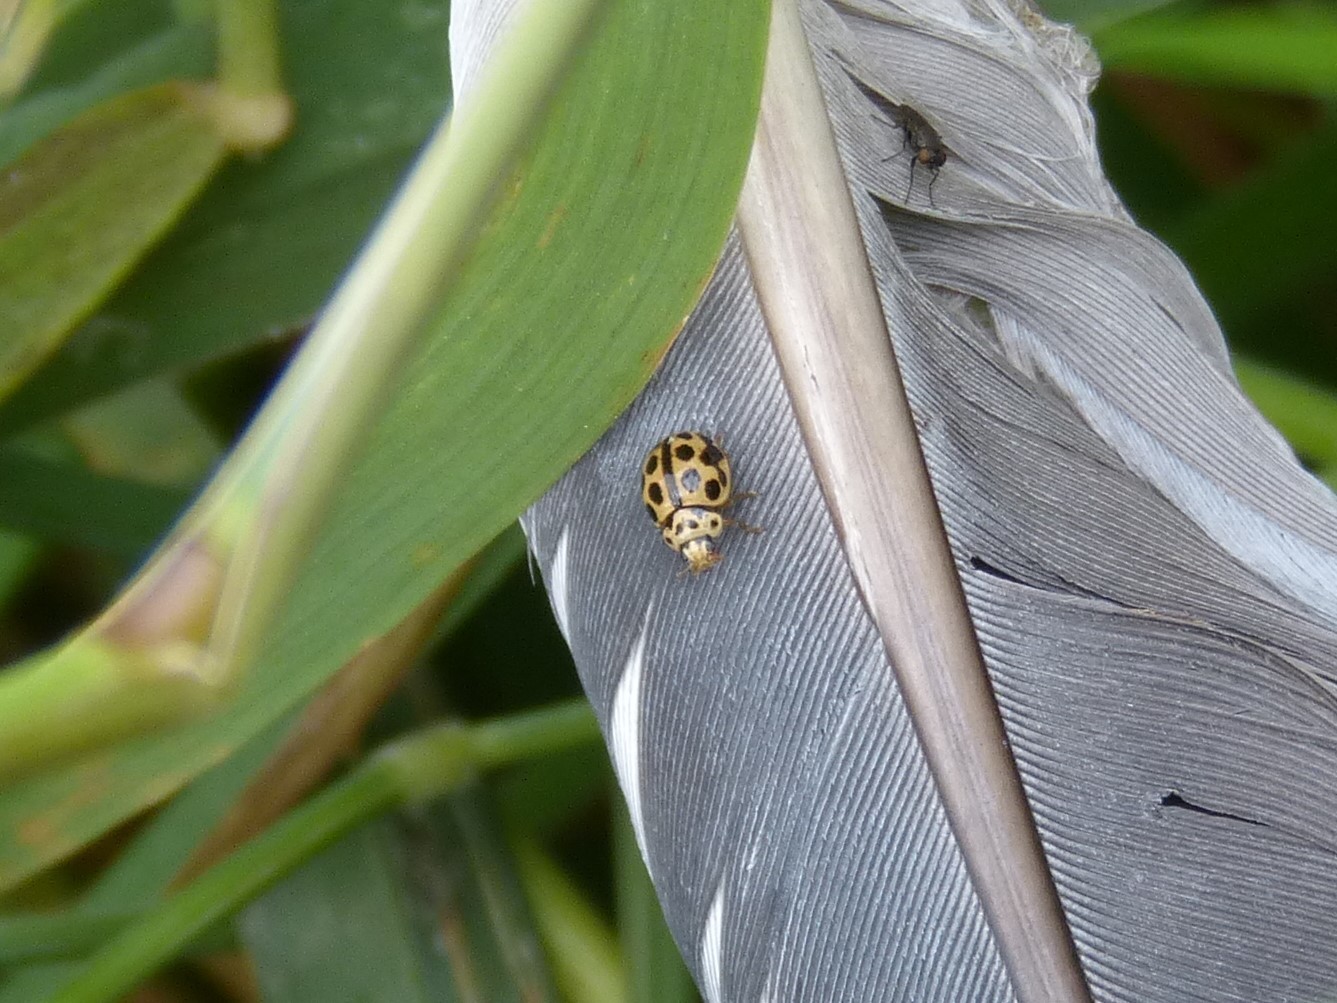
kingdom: Animalia
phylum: Arthropoda
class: Insecta
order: Coleoptera
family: Coccinellidae
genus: Tytthaspis
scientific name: Tytthaspis sedecimpunctata
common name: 16-spot ladybird
